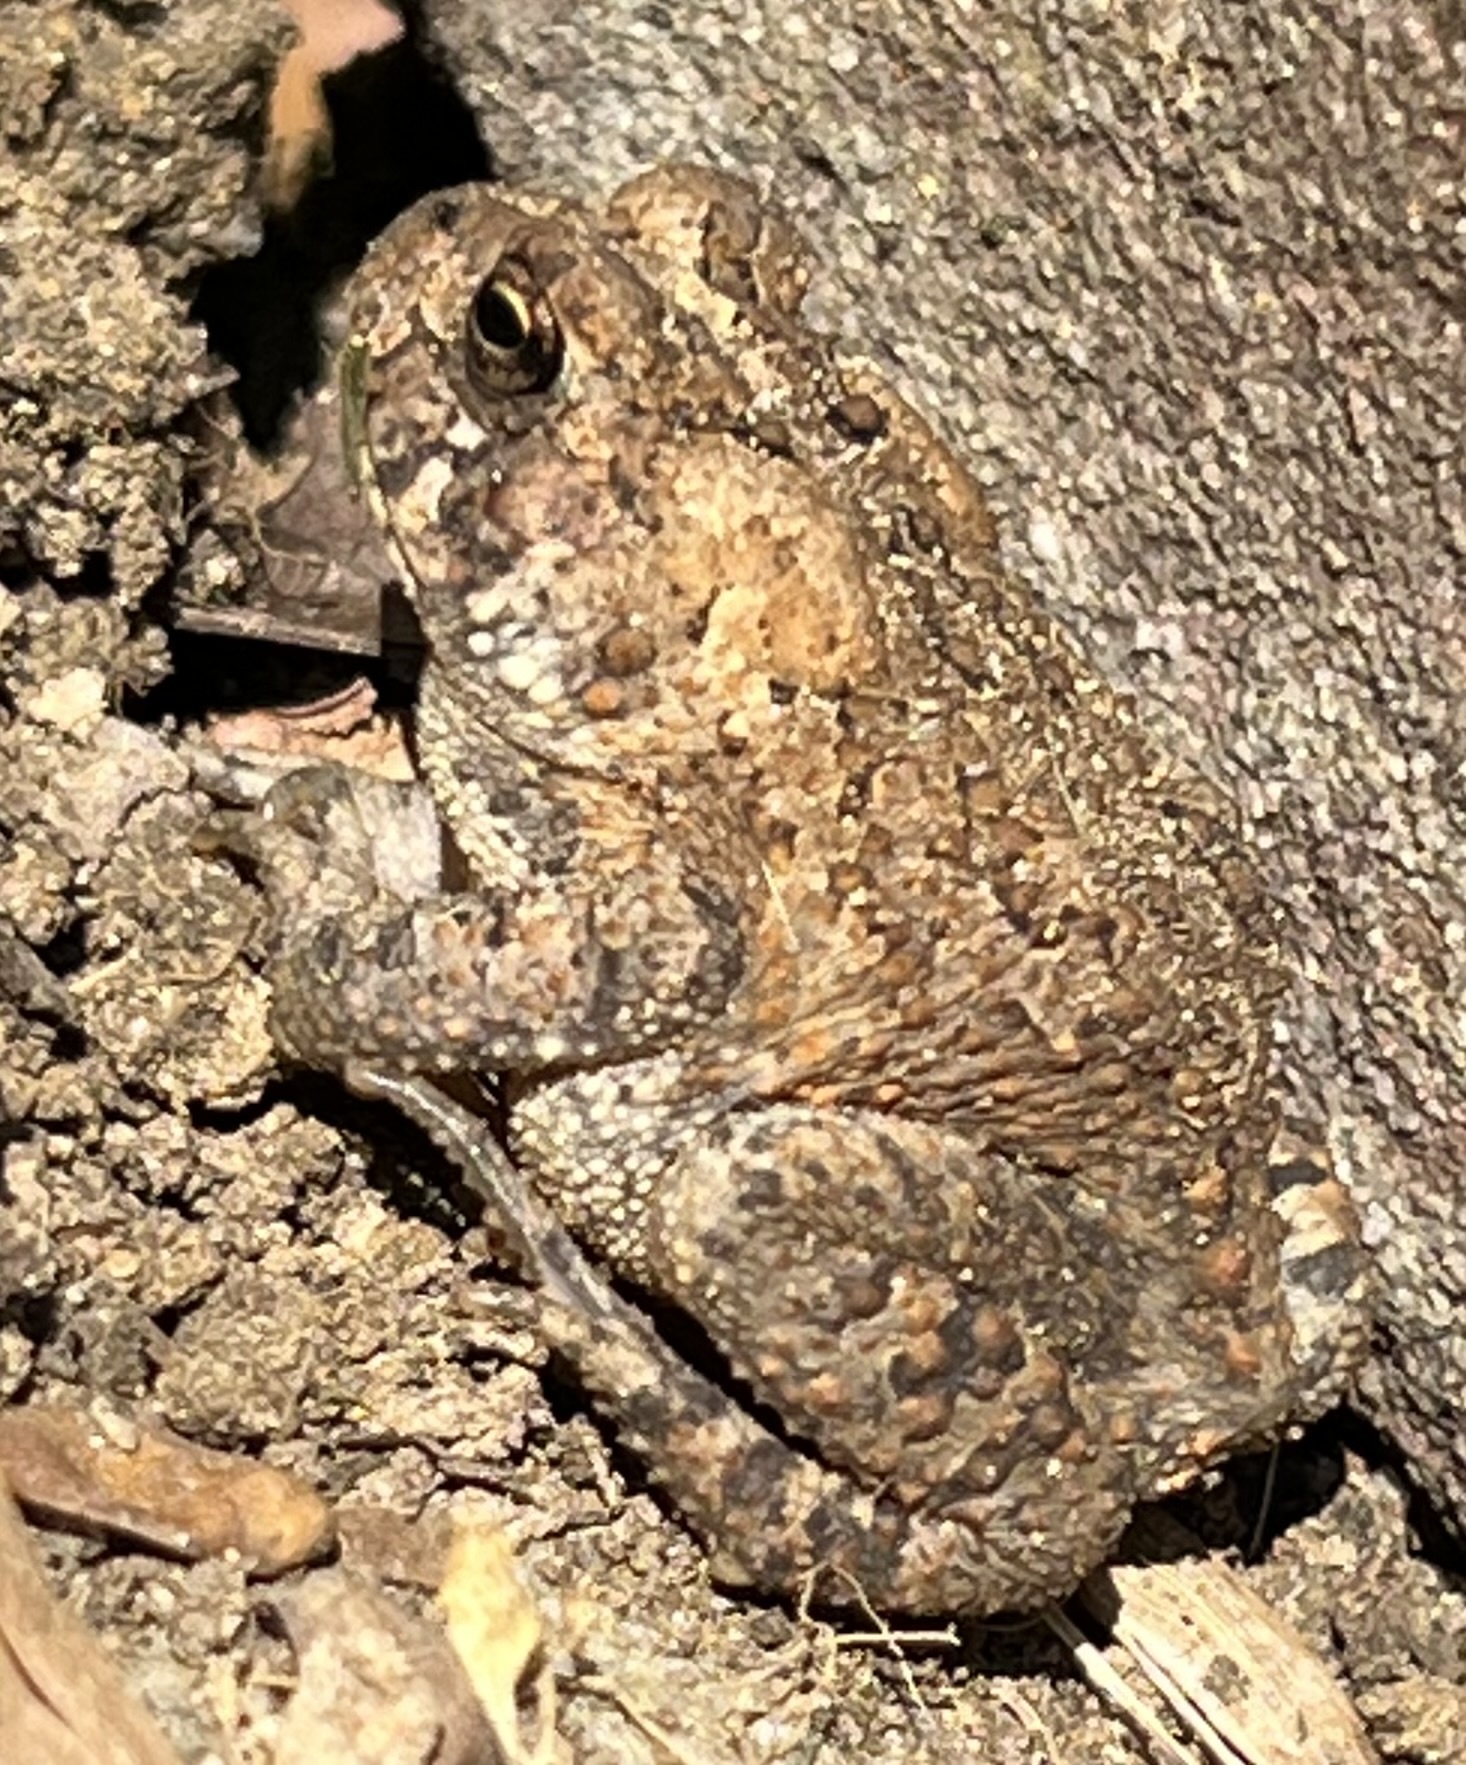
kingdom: Animalia
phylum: Chordata
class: Amphibia
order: Anura
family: Bufonidae
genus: Anaxyrus
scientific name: Anaxyrus americanus
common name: American toad
